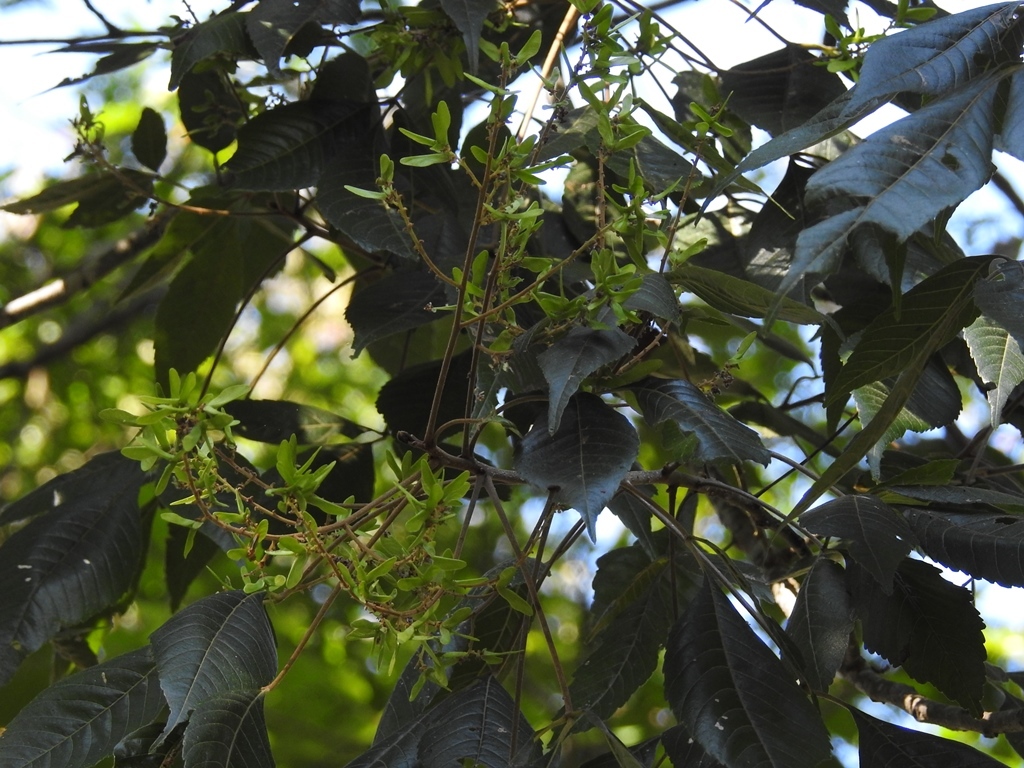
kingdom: Plantae
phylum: Tracheophyta
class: Magnoliopsida
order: Sapindales
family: Sapindaceae
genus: Thouinia
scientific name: Thouinia serrata
